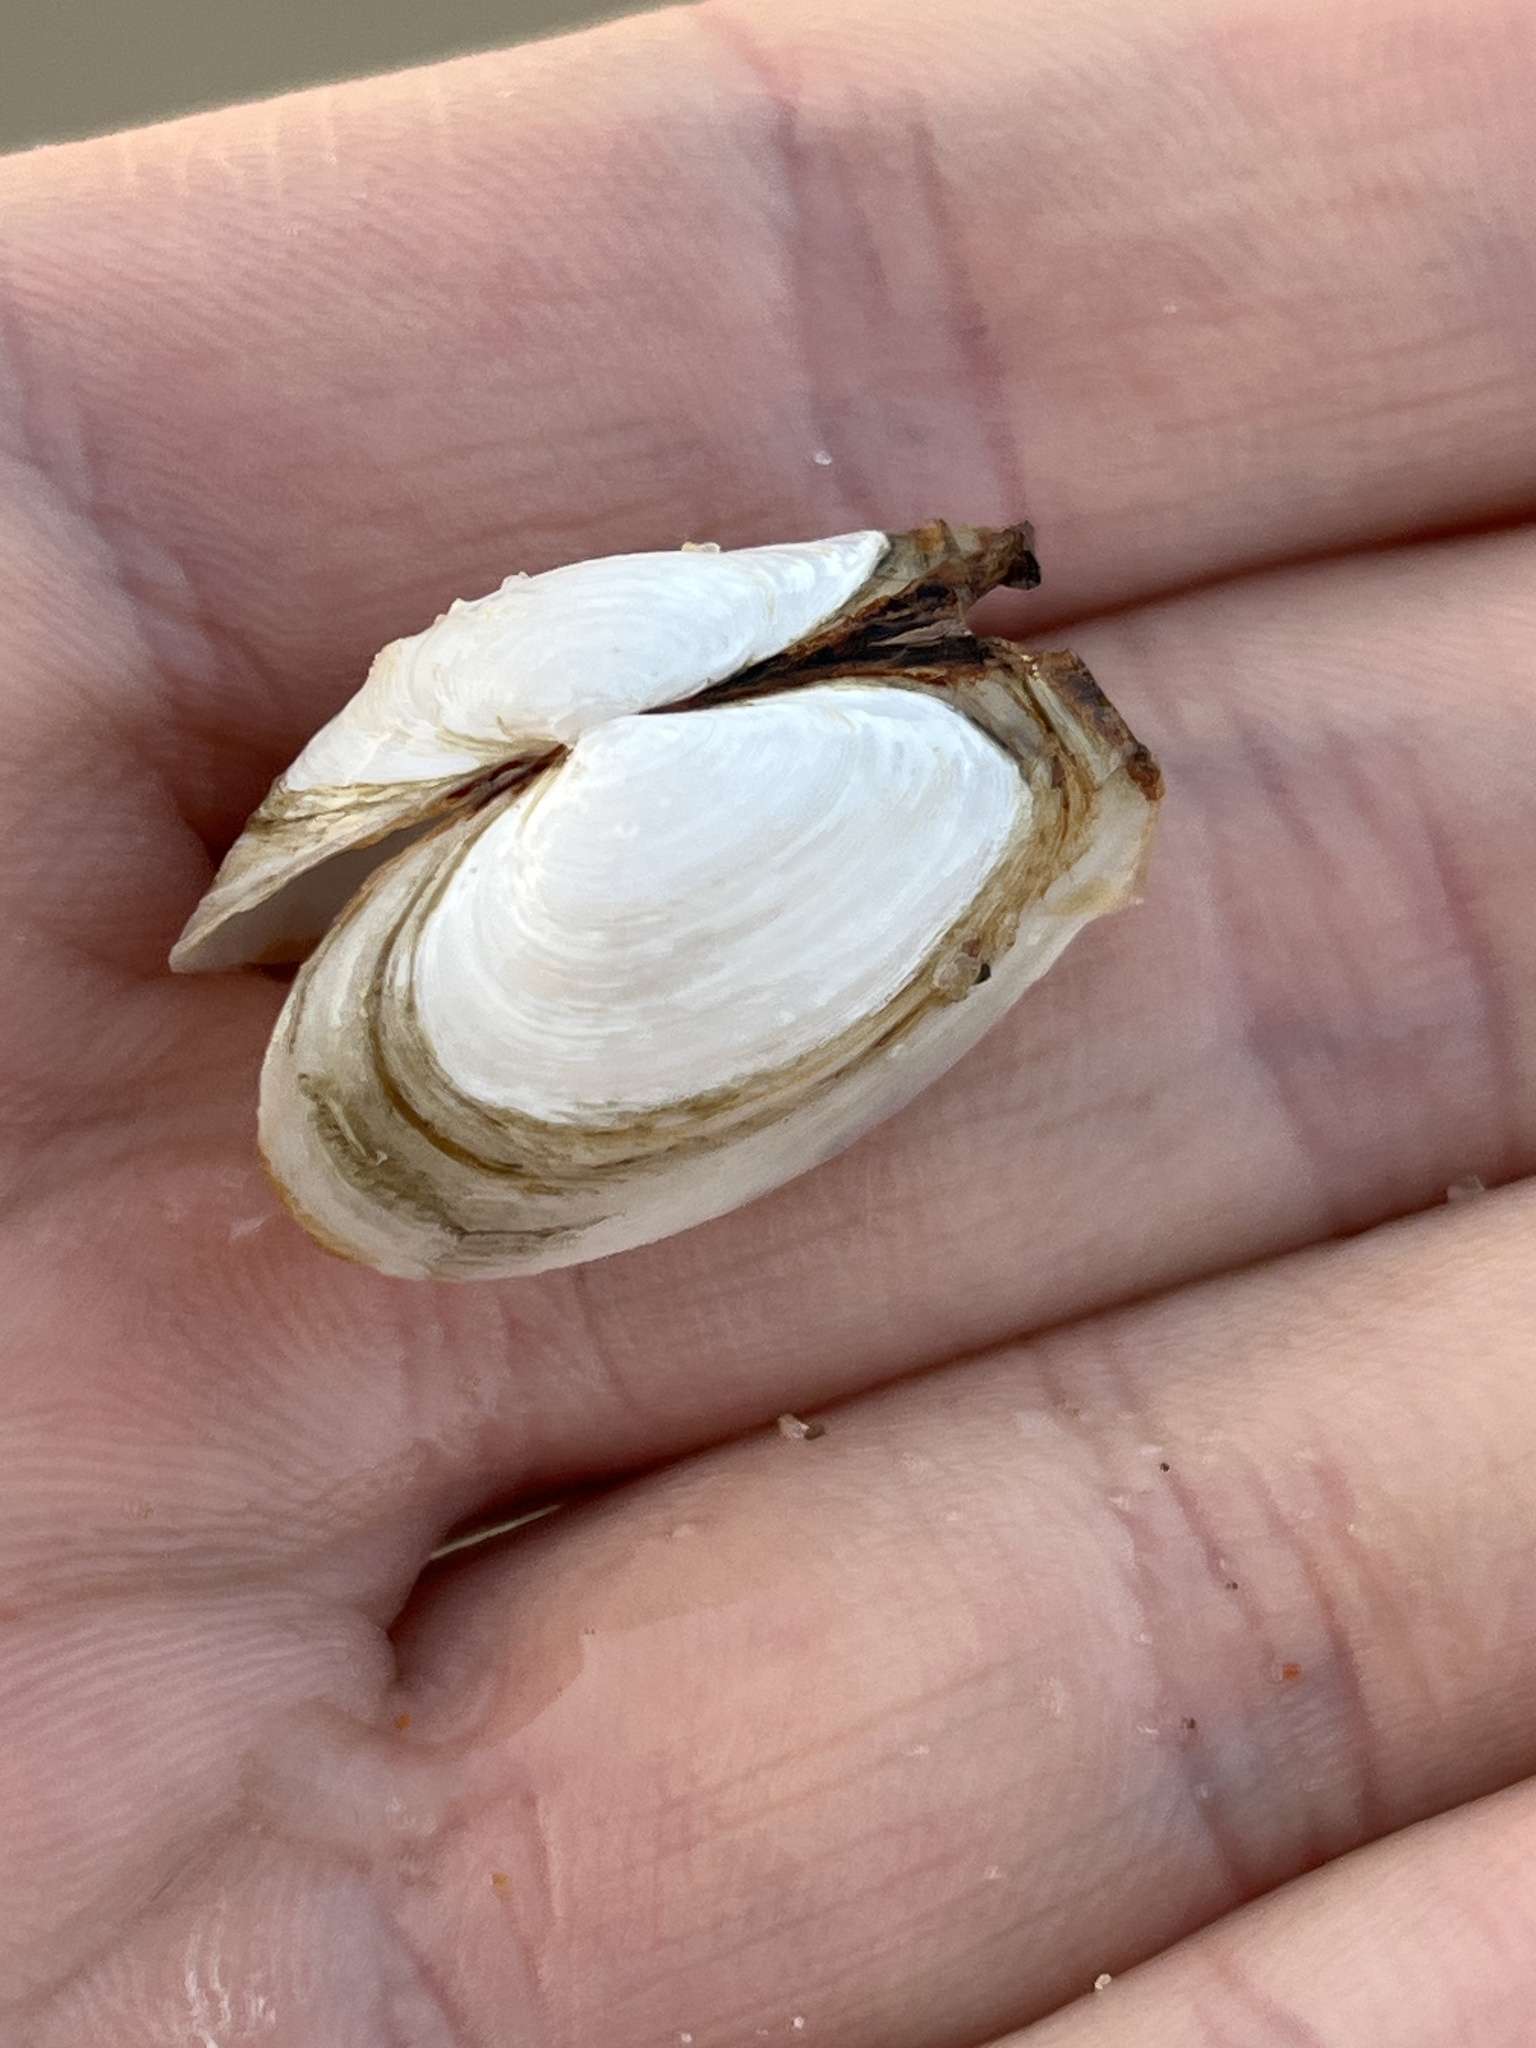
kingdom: Animalia
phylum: Mollusca
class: Bivalvia
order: Myida
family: Myidae
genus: Mya
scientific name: Mya arenaria
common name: Soft-shelled clam
